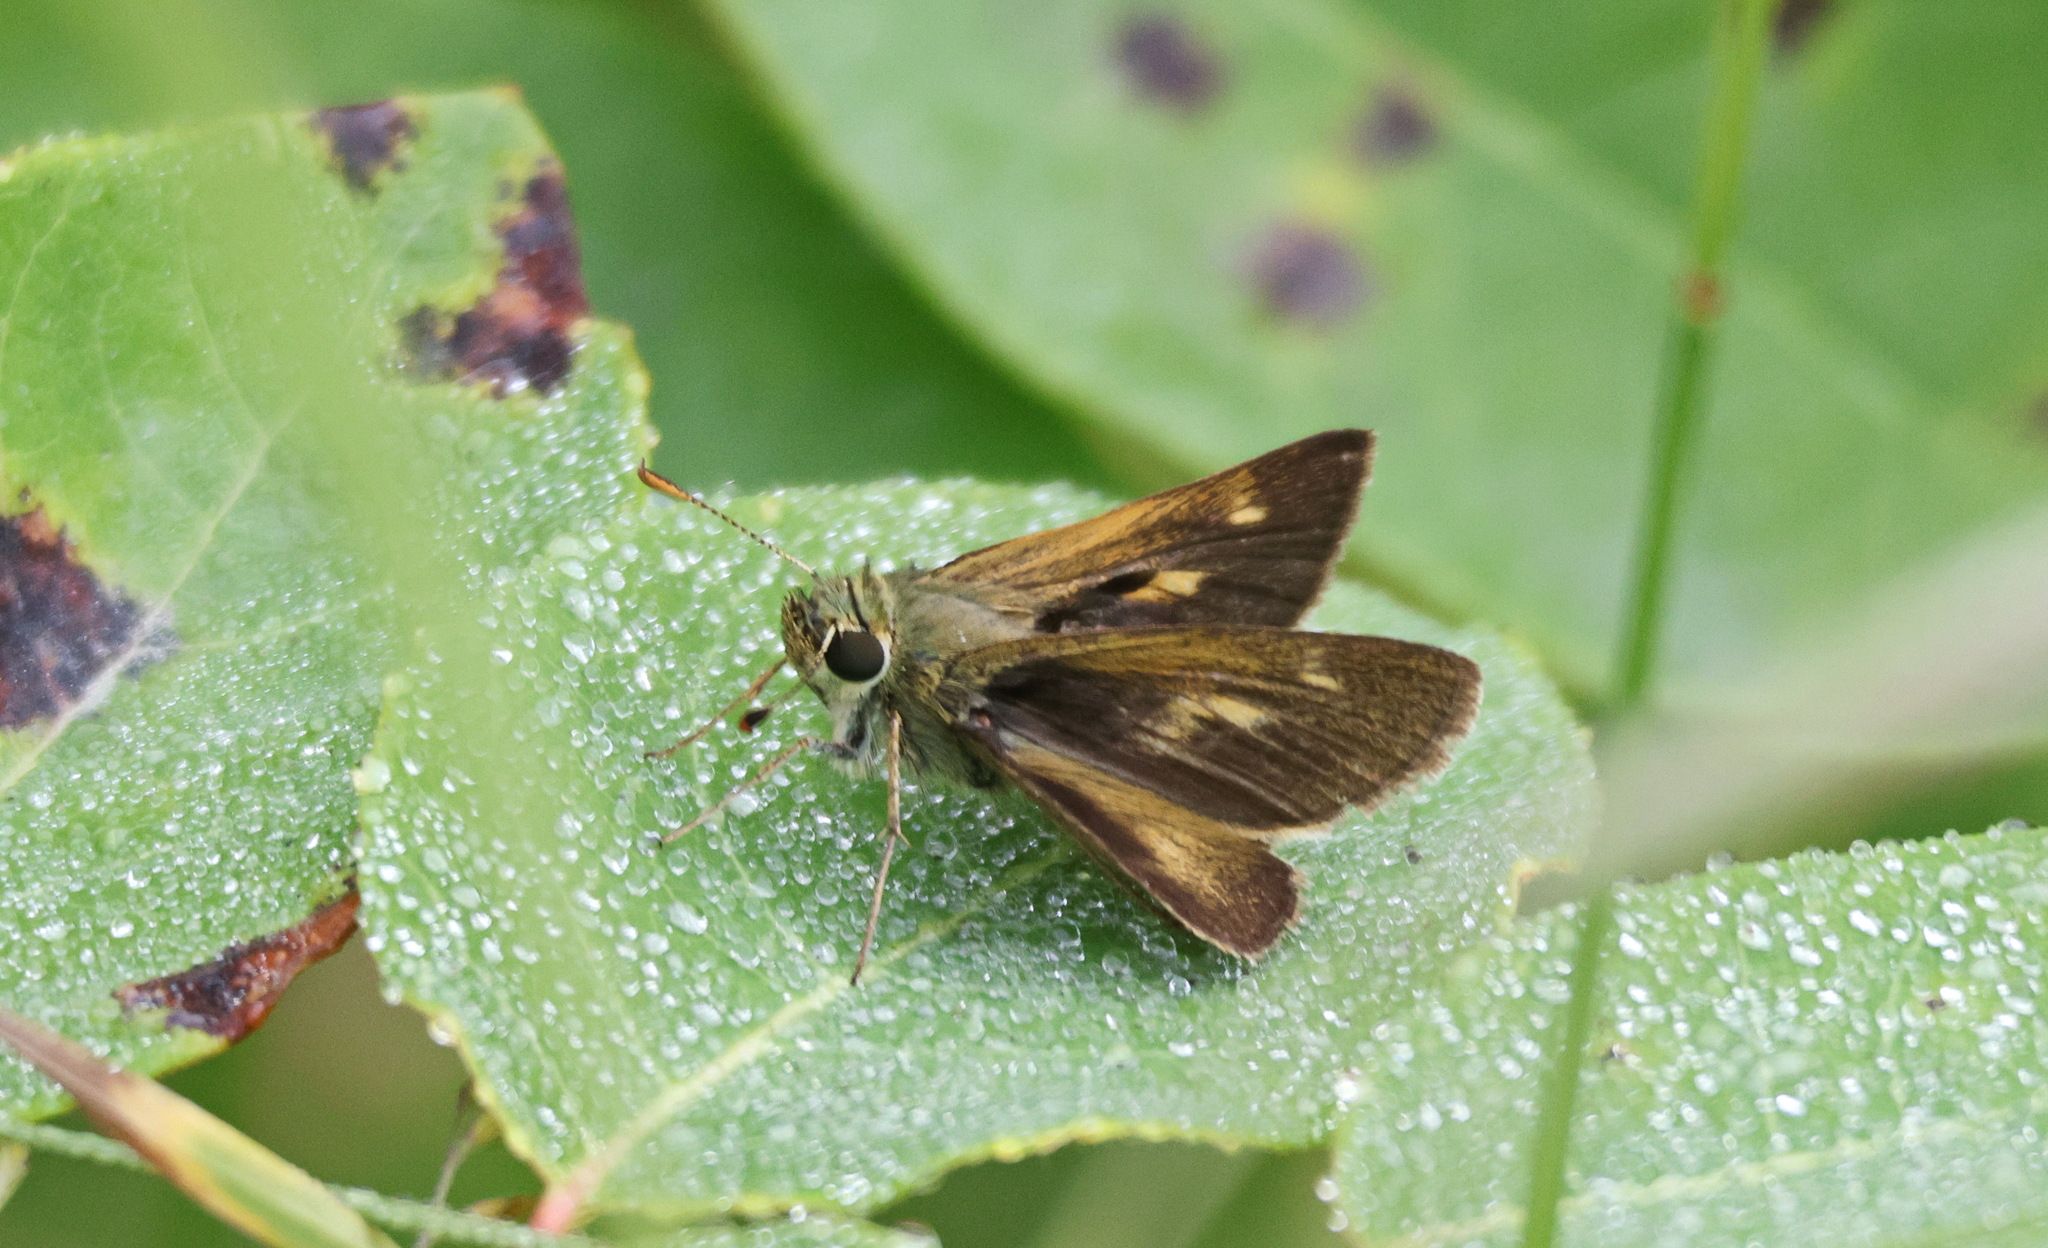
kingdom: Animalia
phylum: Arthropoda
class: Insecta
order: Lepidoptera
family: Hesperiidae
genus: Polites
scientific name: Polites egeremet
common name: Northern broken-dash
